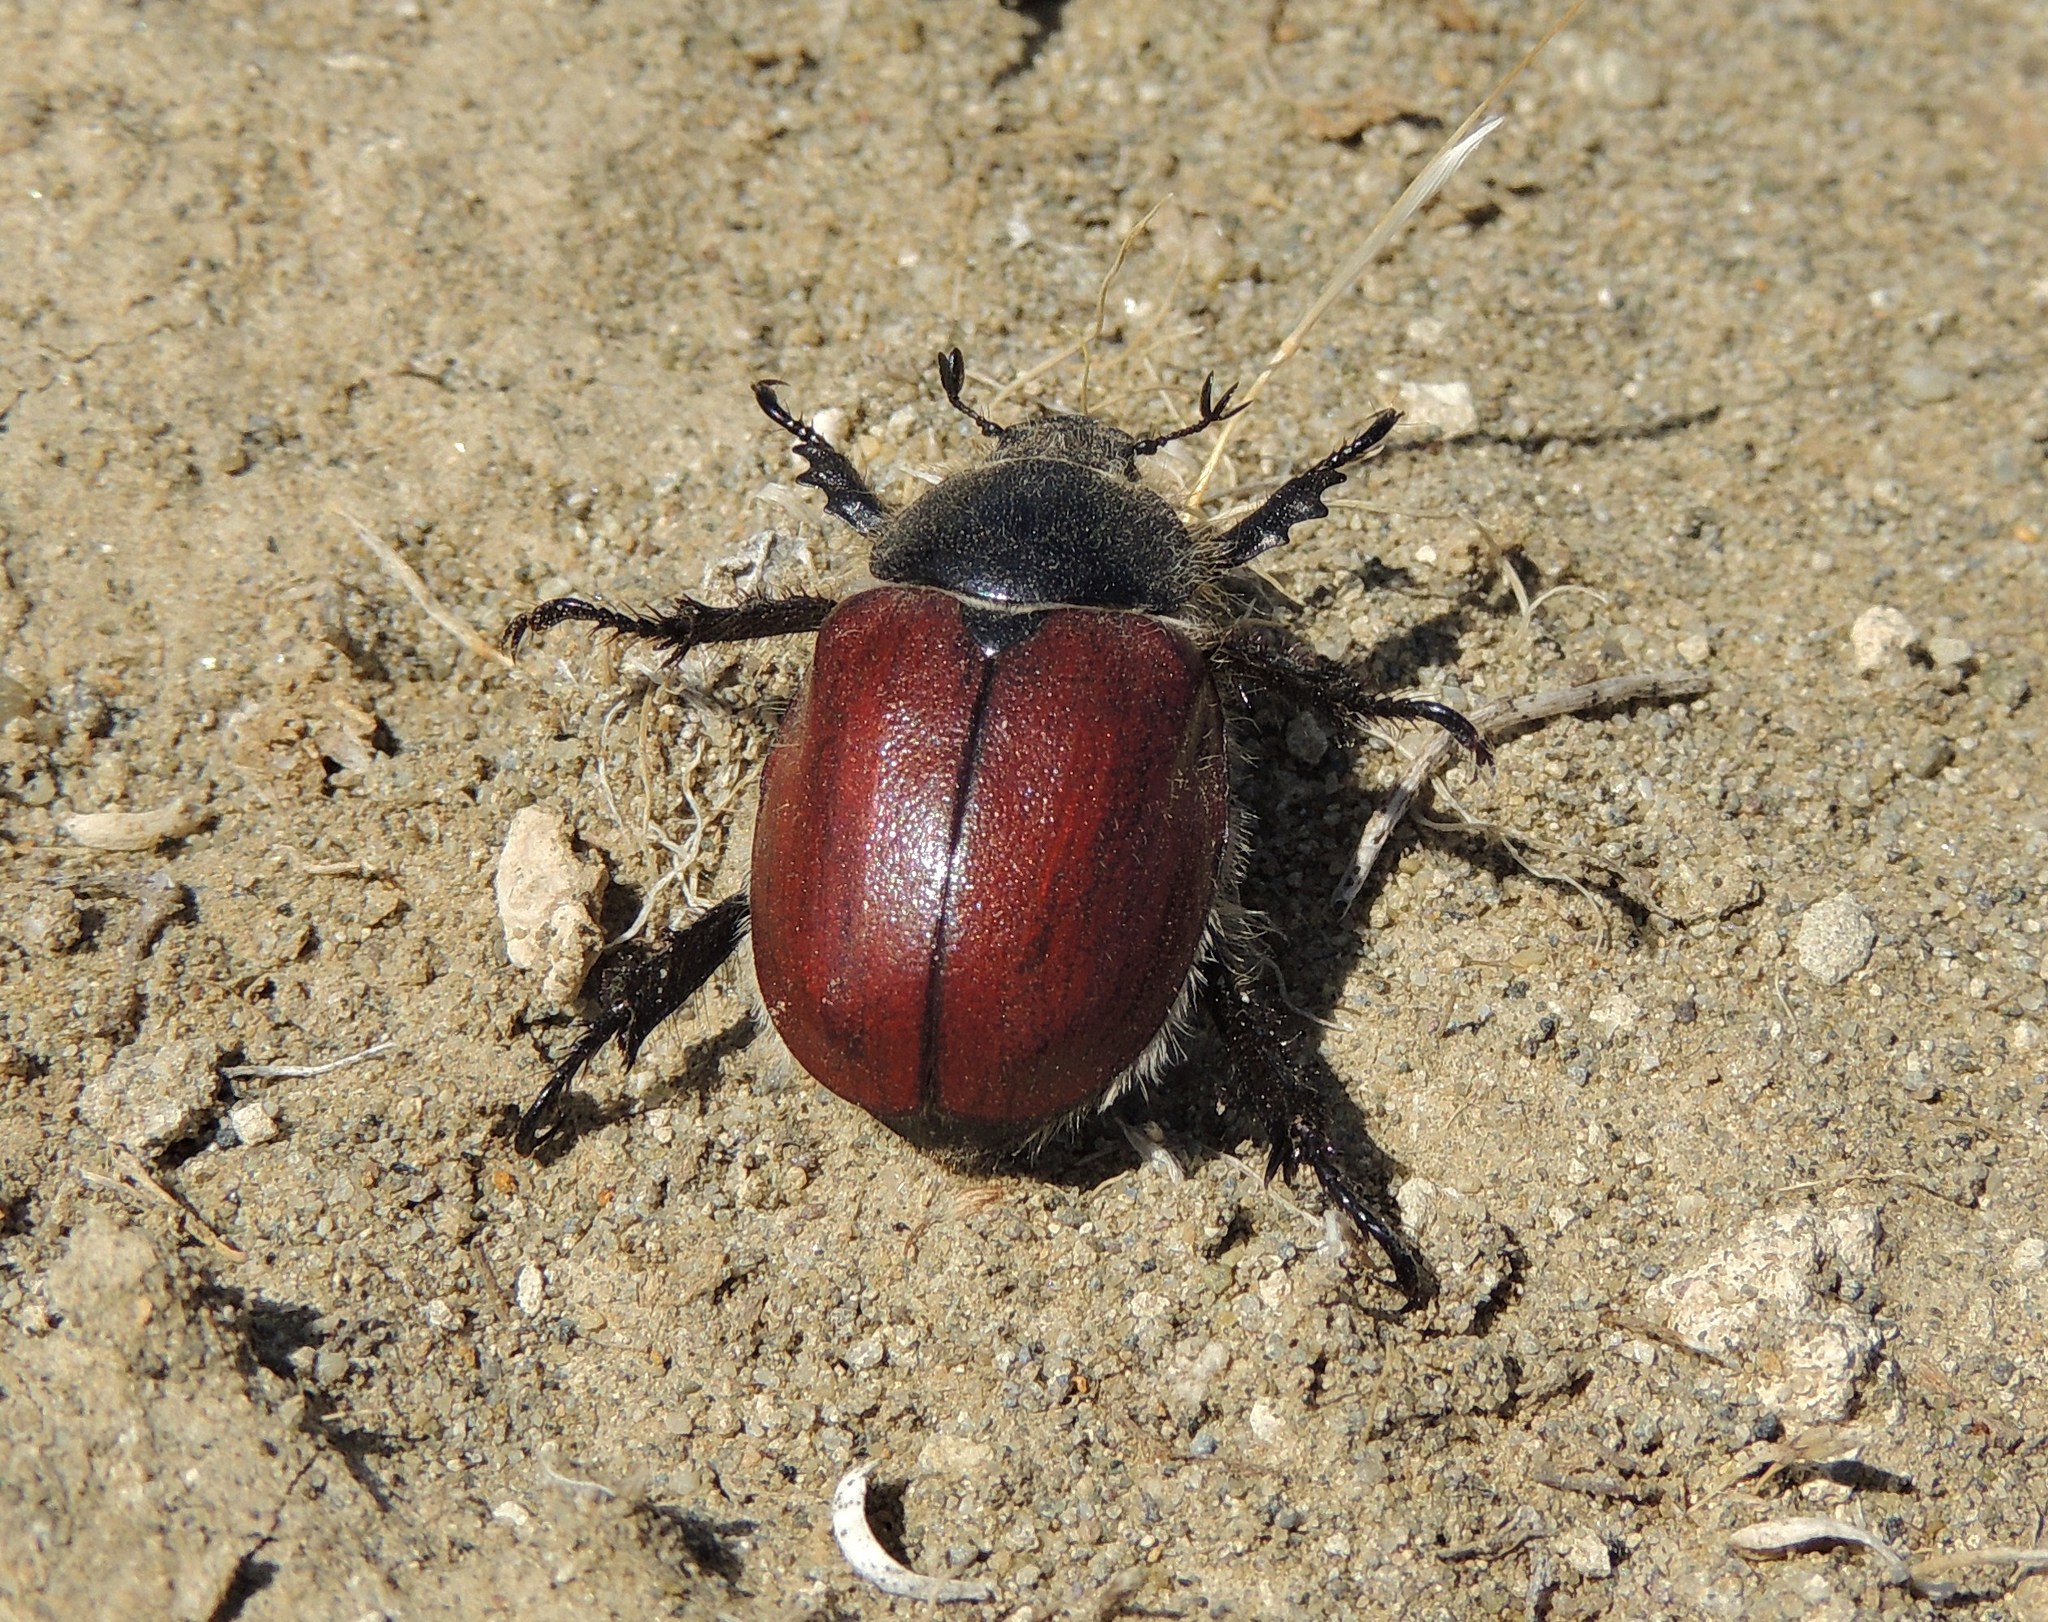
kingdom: Animalia
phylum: Arthropoda
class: Insecta
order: Coleoptera
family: Scarabaeidae
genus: Paracotalpa
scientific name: Paracotalpa ursina
